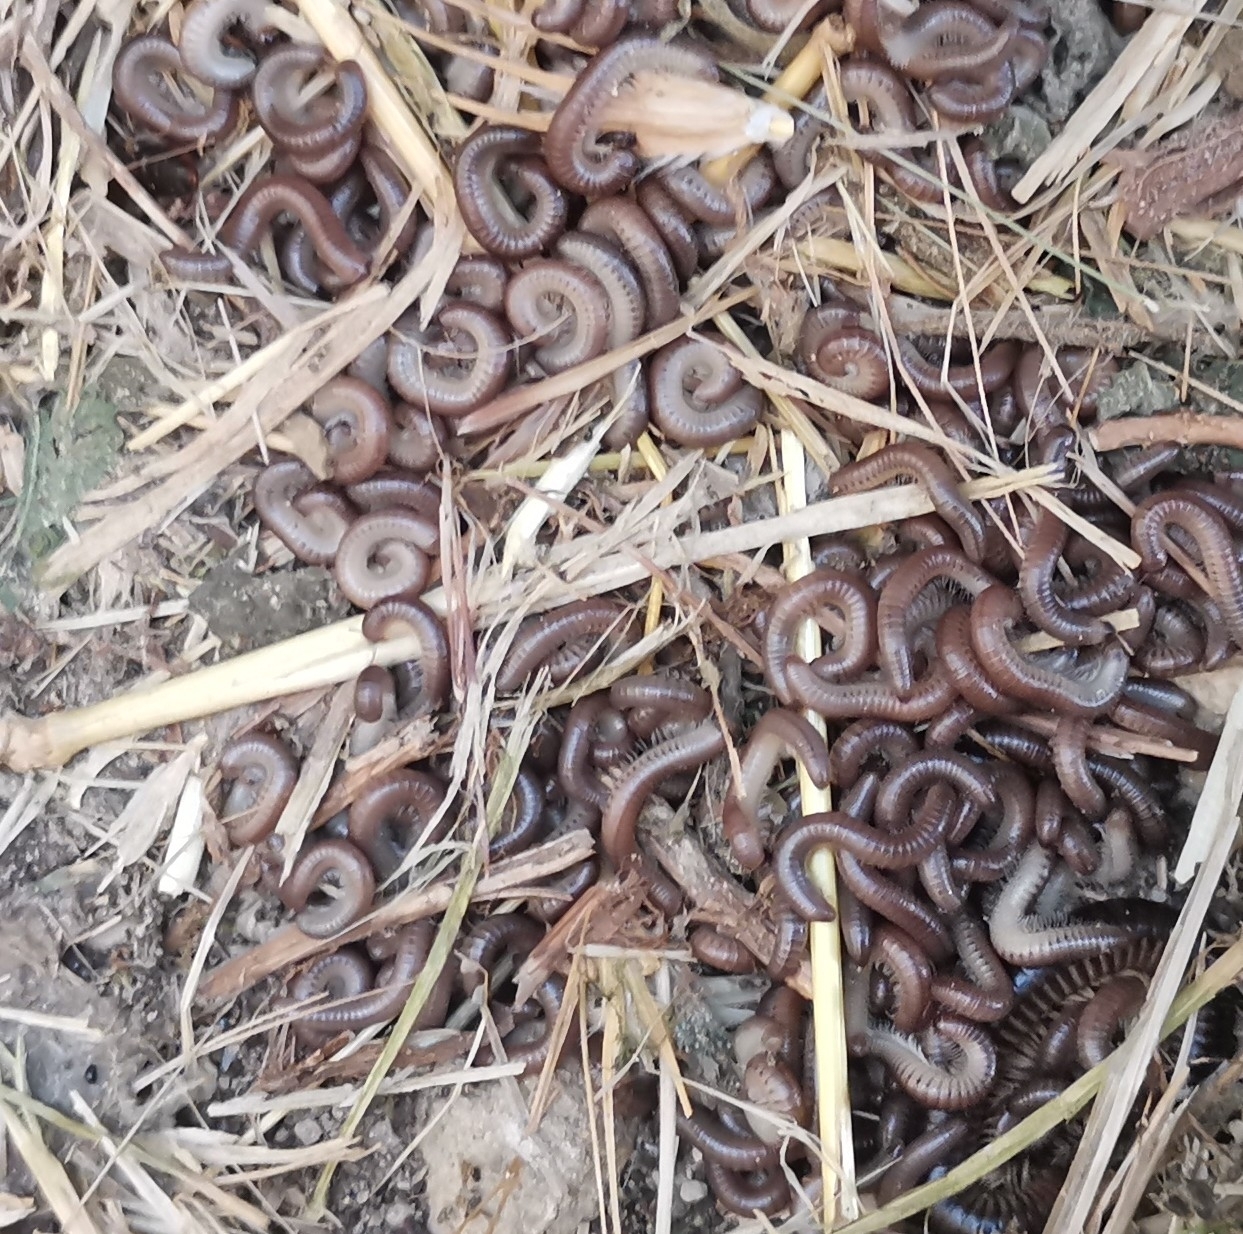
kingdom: Animalia
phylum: Arthropoda
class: Diplopoda
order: Julida
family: Julidae
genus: Pachyiulus
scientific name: Pachyiulus flavipes
